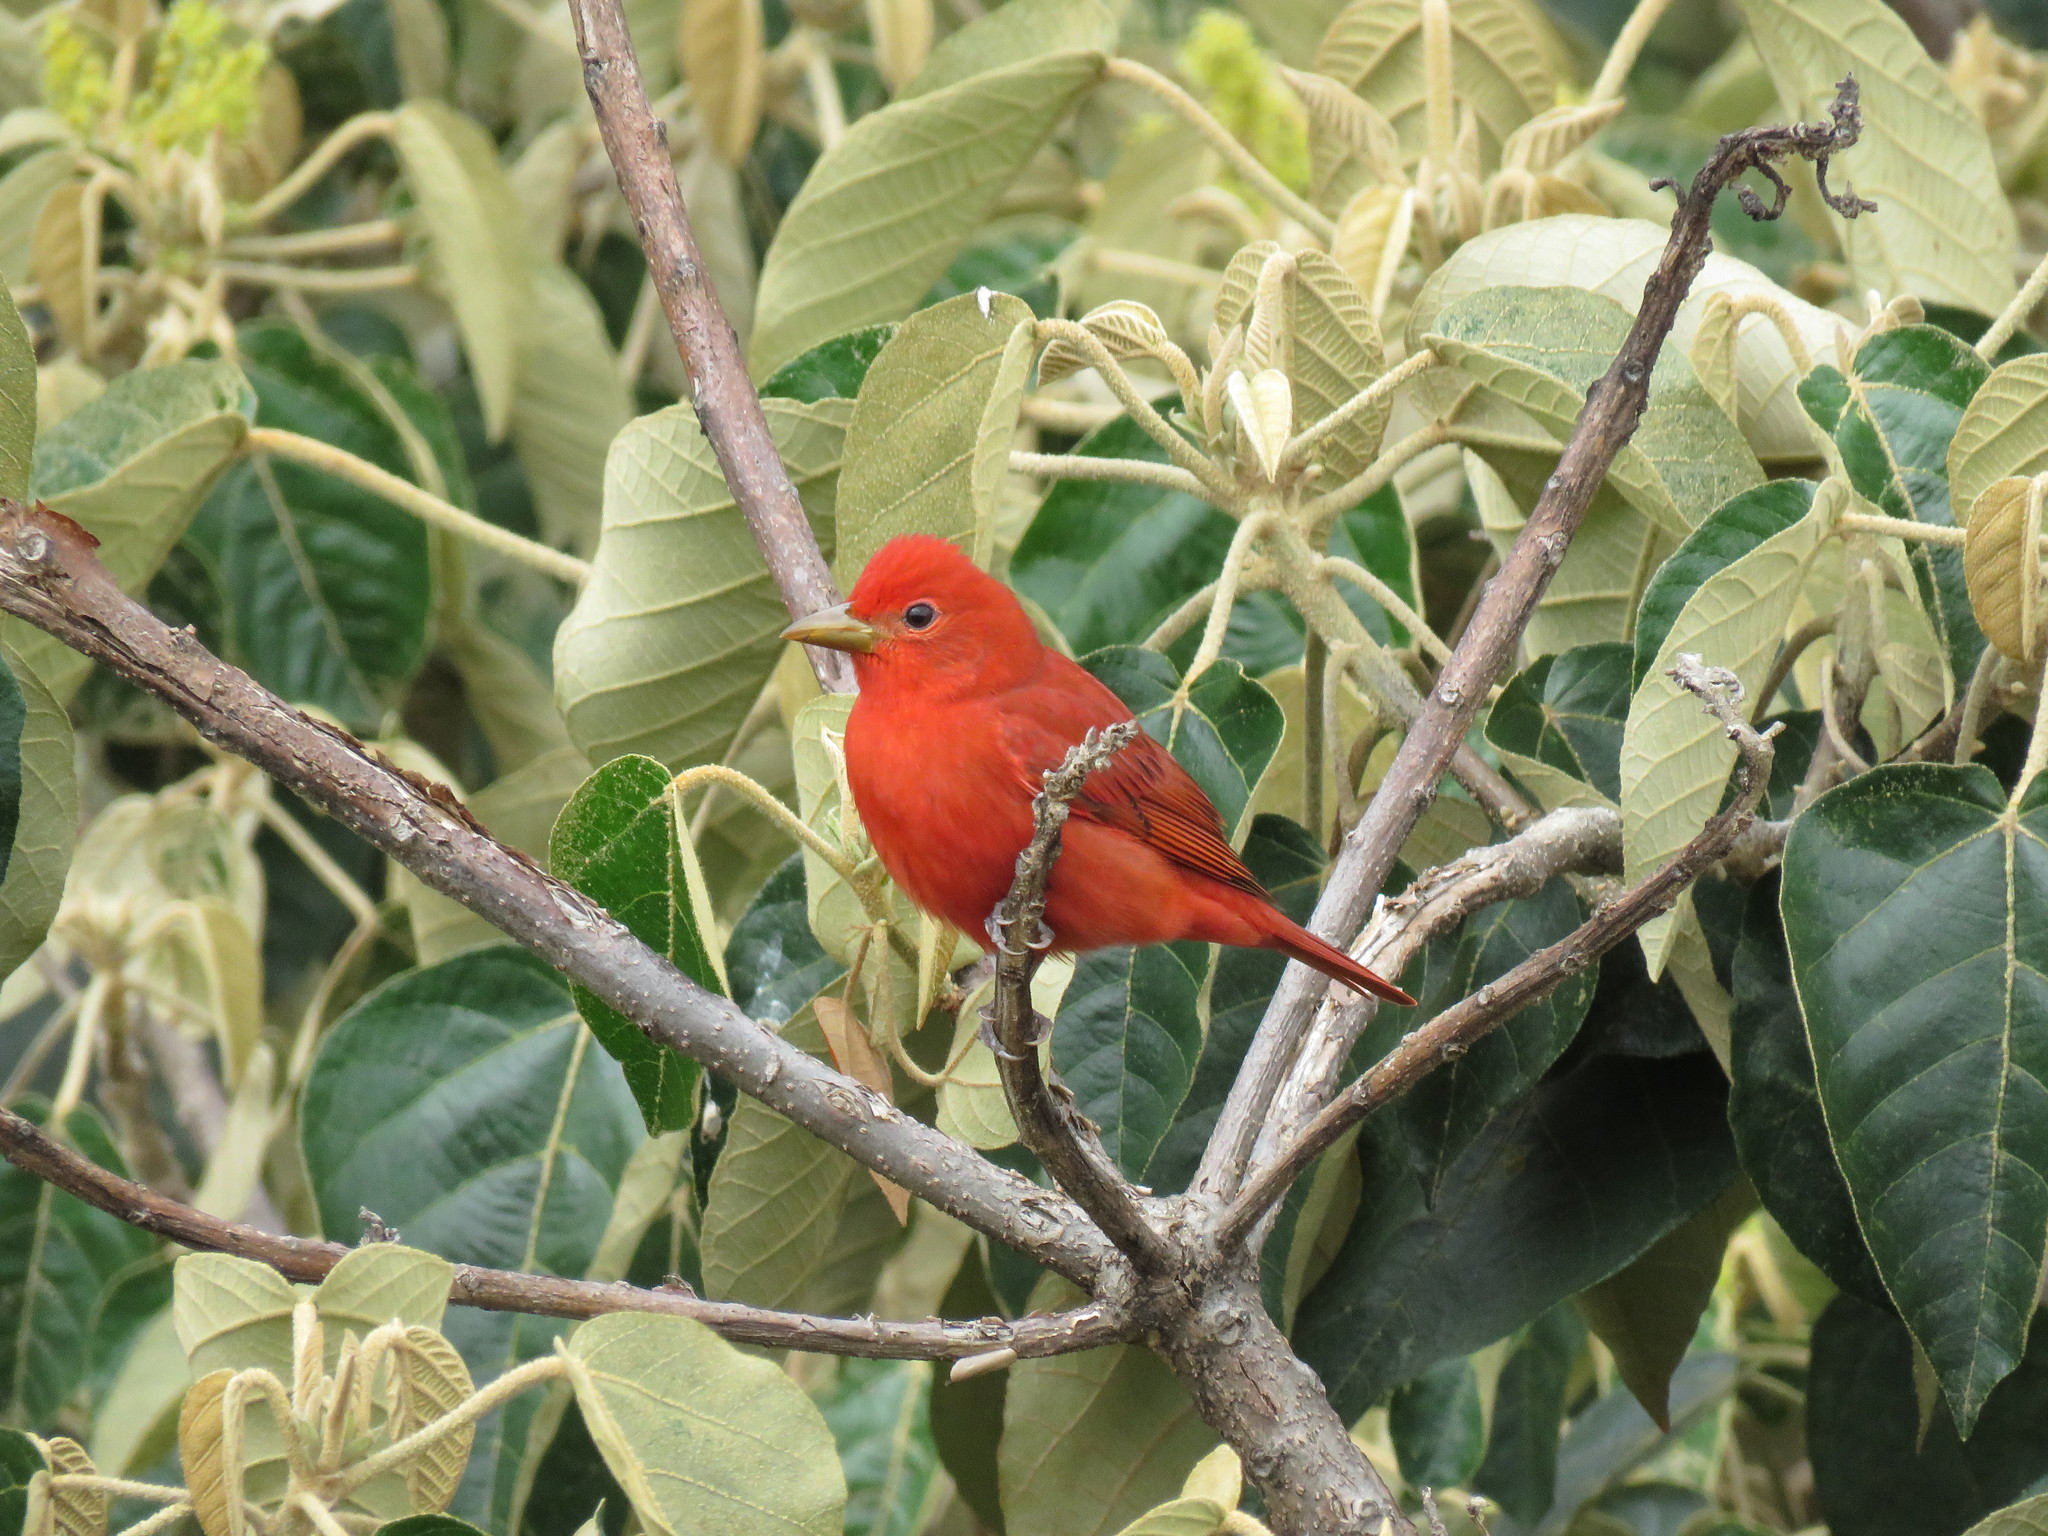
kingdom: Animalia
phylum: Chordata
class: Aves
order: Passeriformes
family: Cardinalidae
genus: Piranga
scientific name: Piranga rubra
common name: Summer tanager
